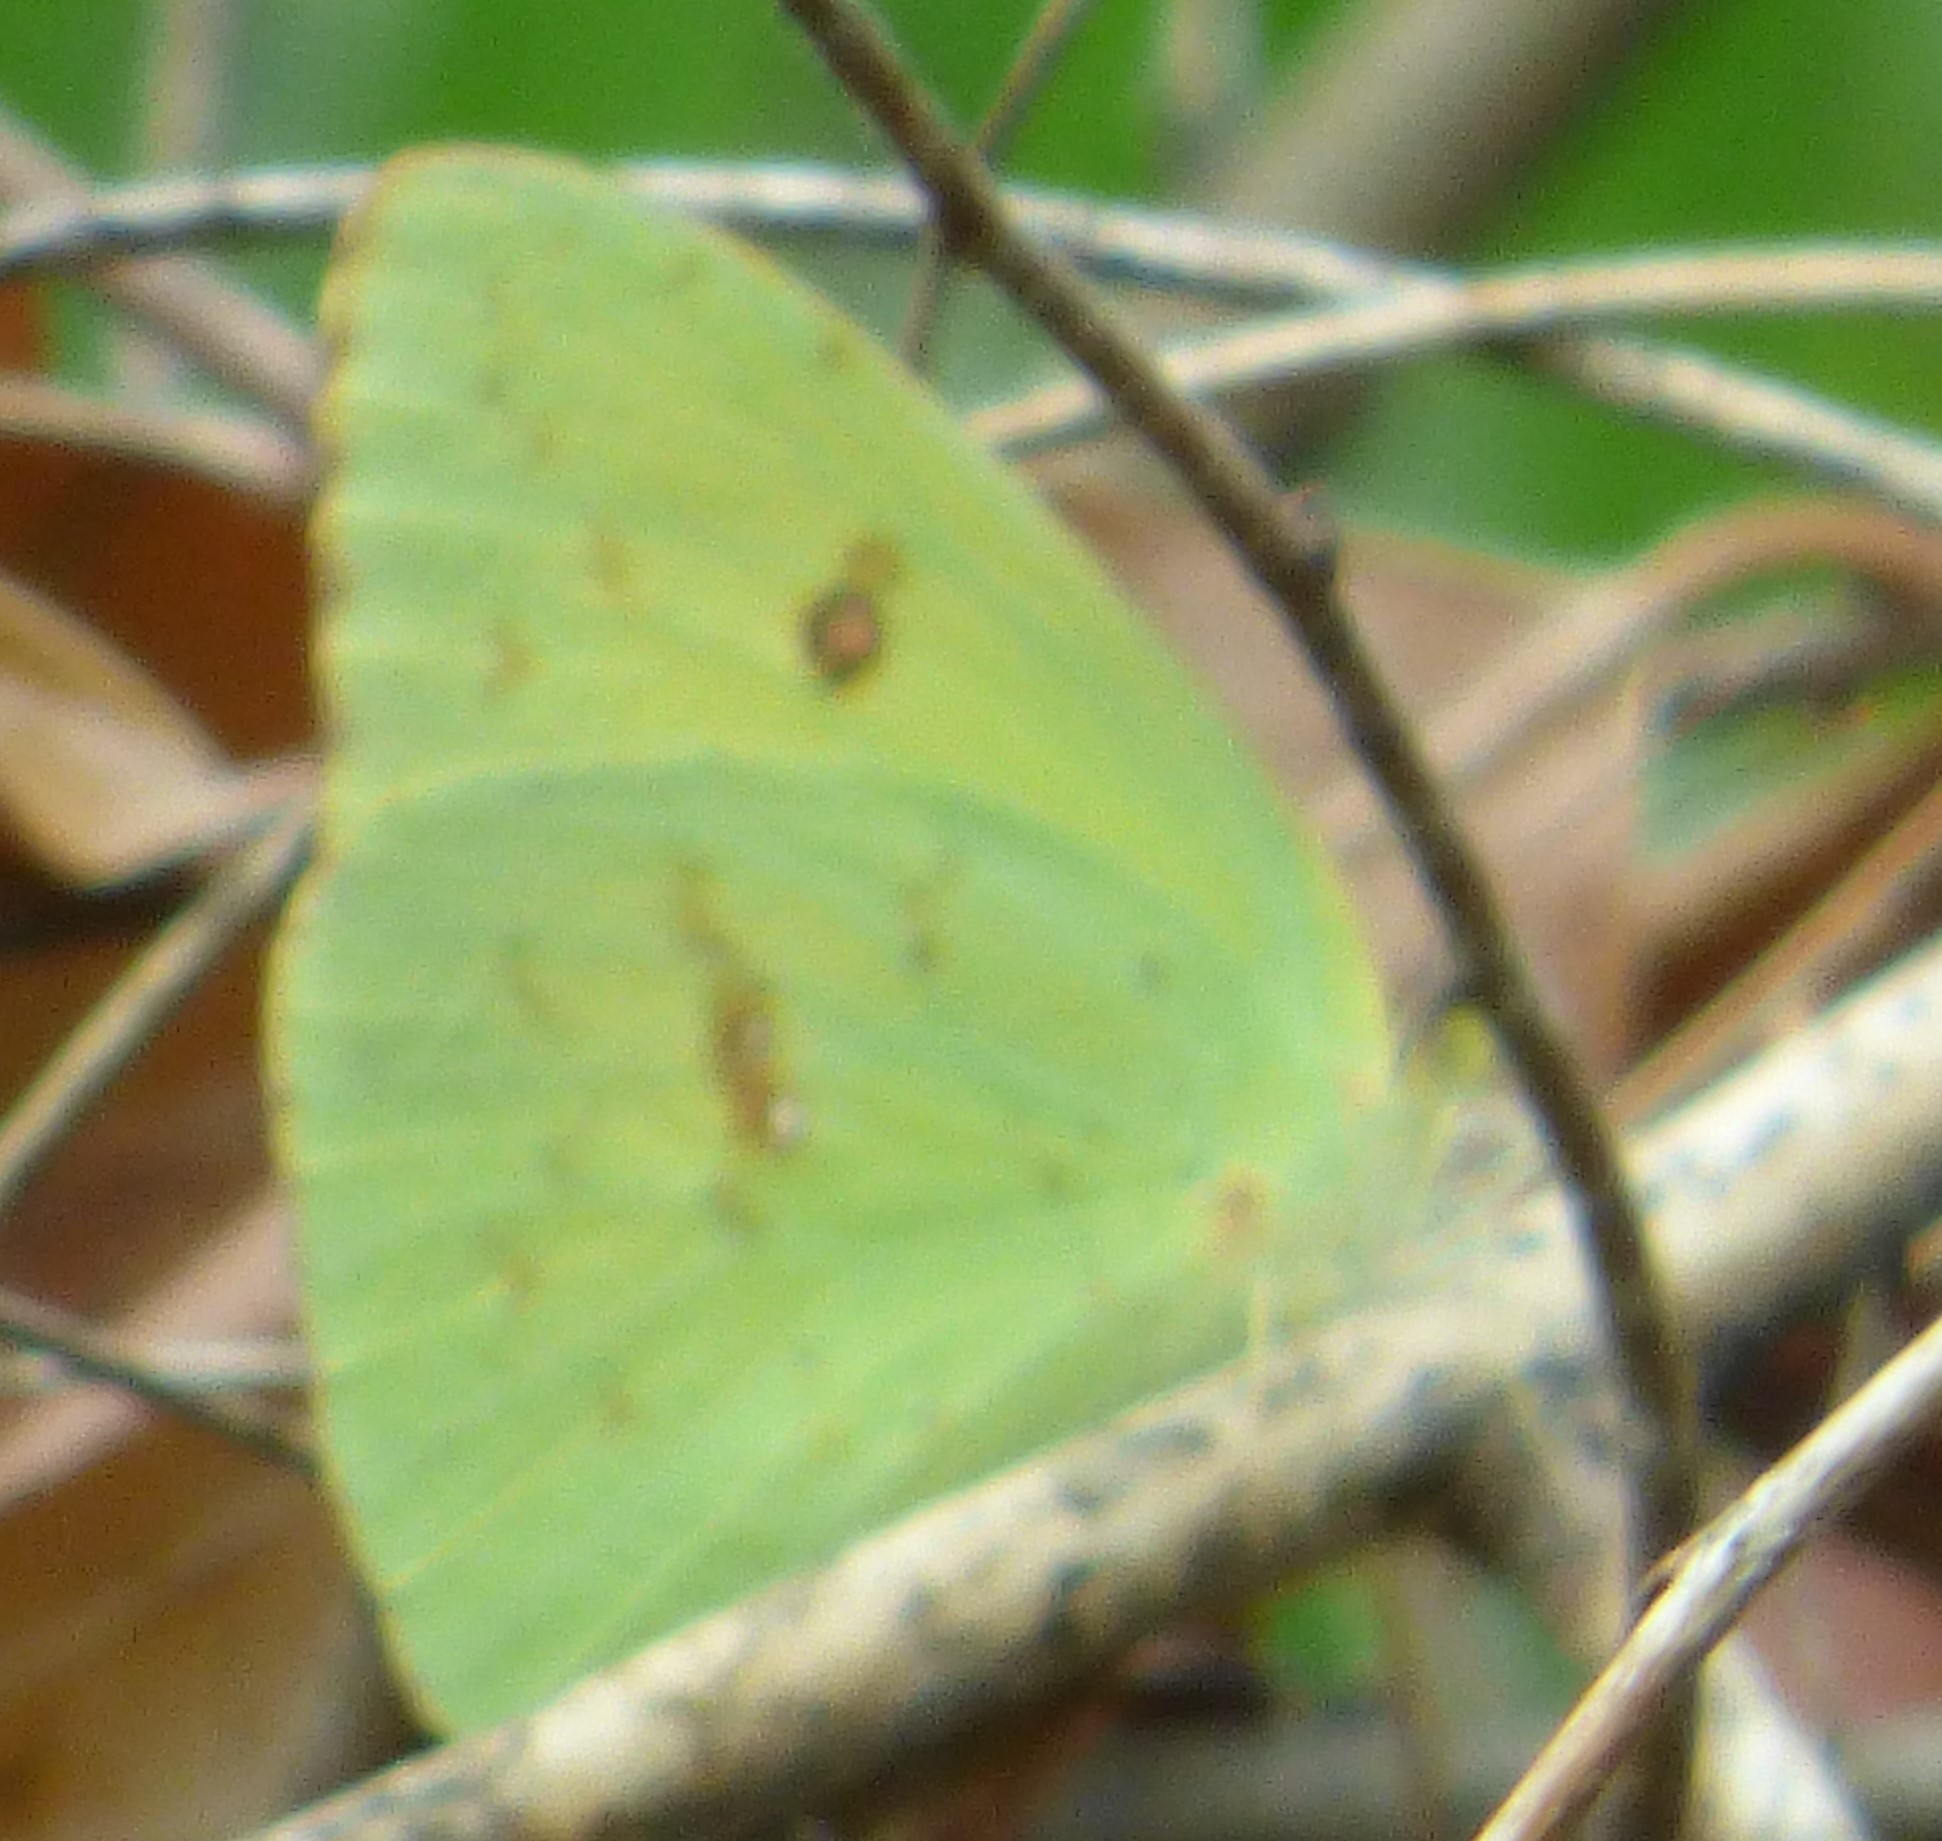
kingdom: Animalia
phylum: Arthropoda
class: Insecta
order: Lepidoptera
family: Pieridae
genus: Phoebis
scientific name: Phoebis sennae
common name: Cloudless sulphur
